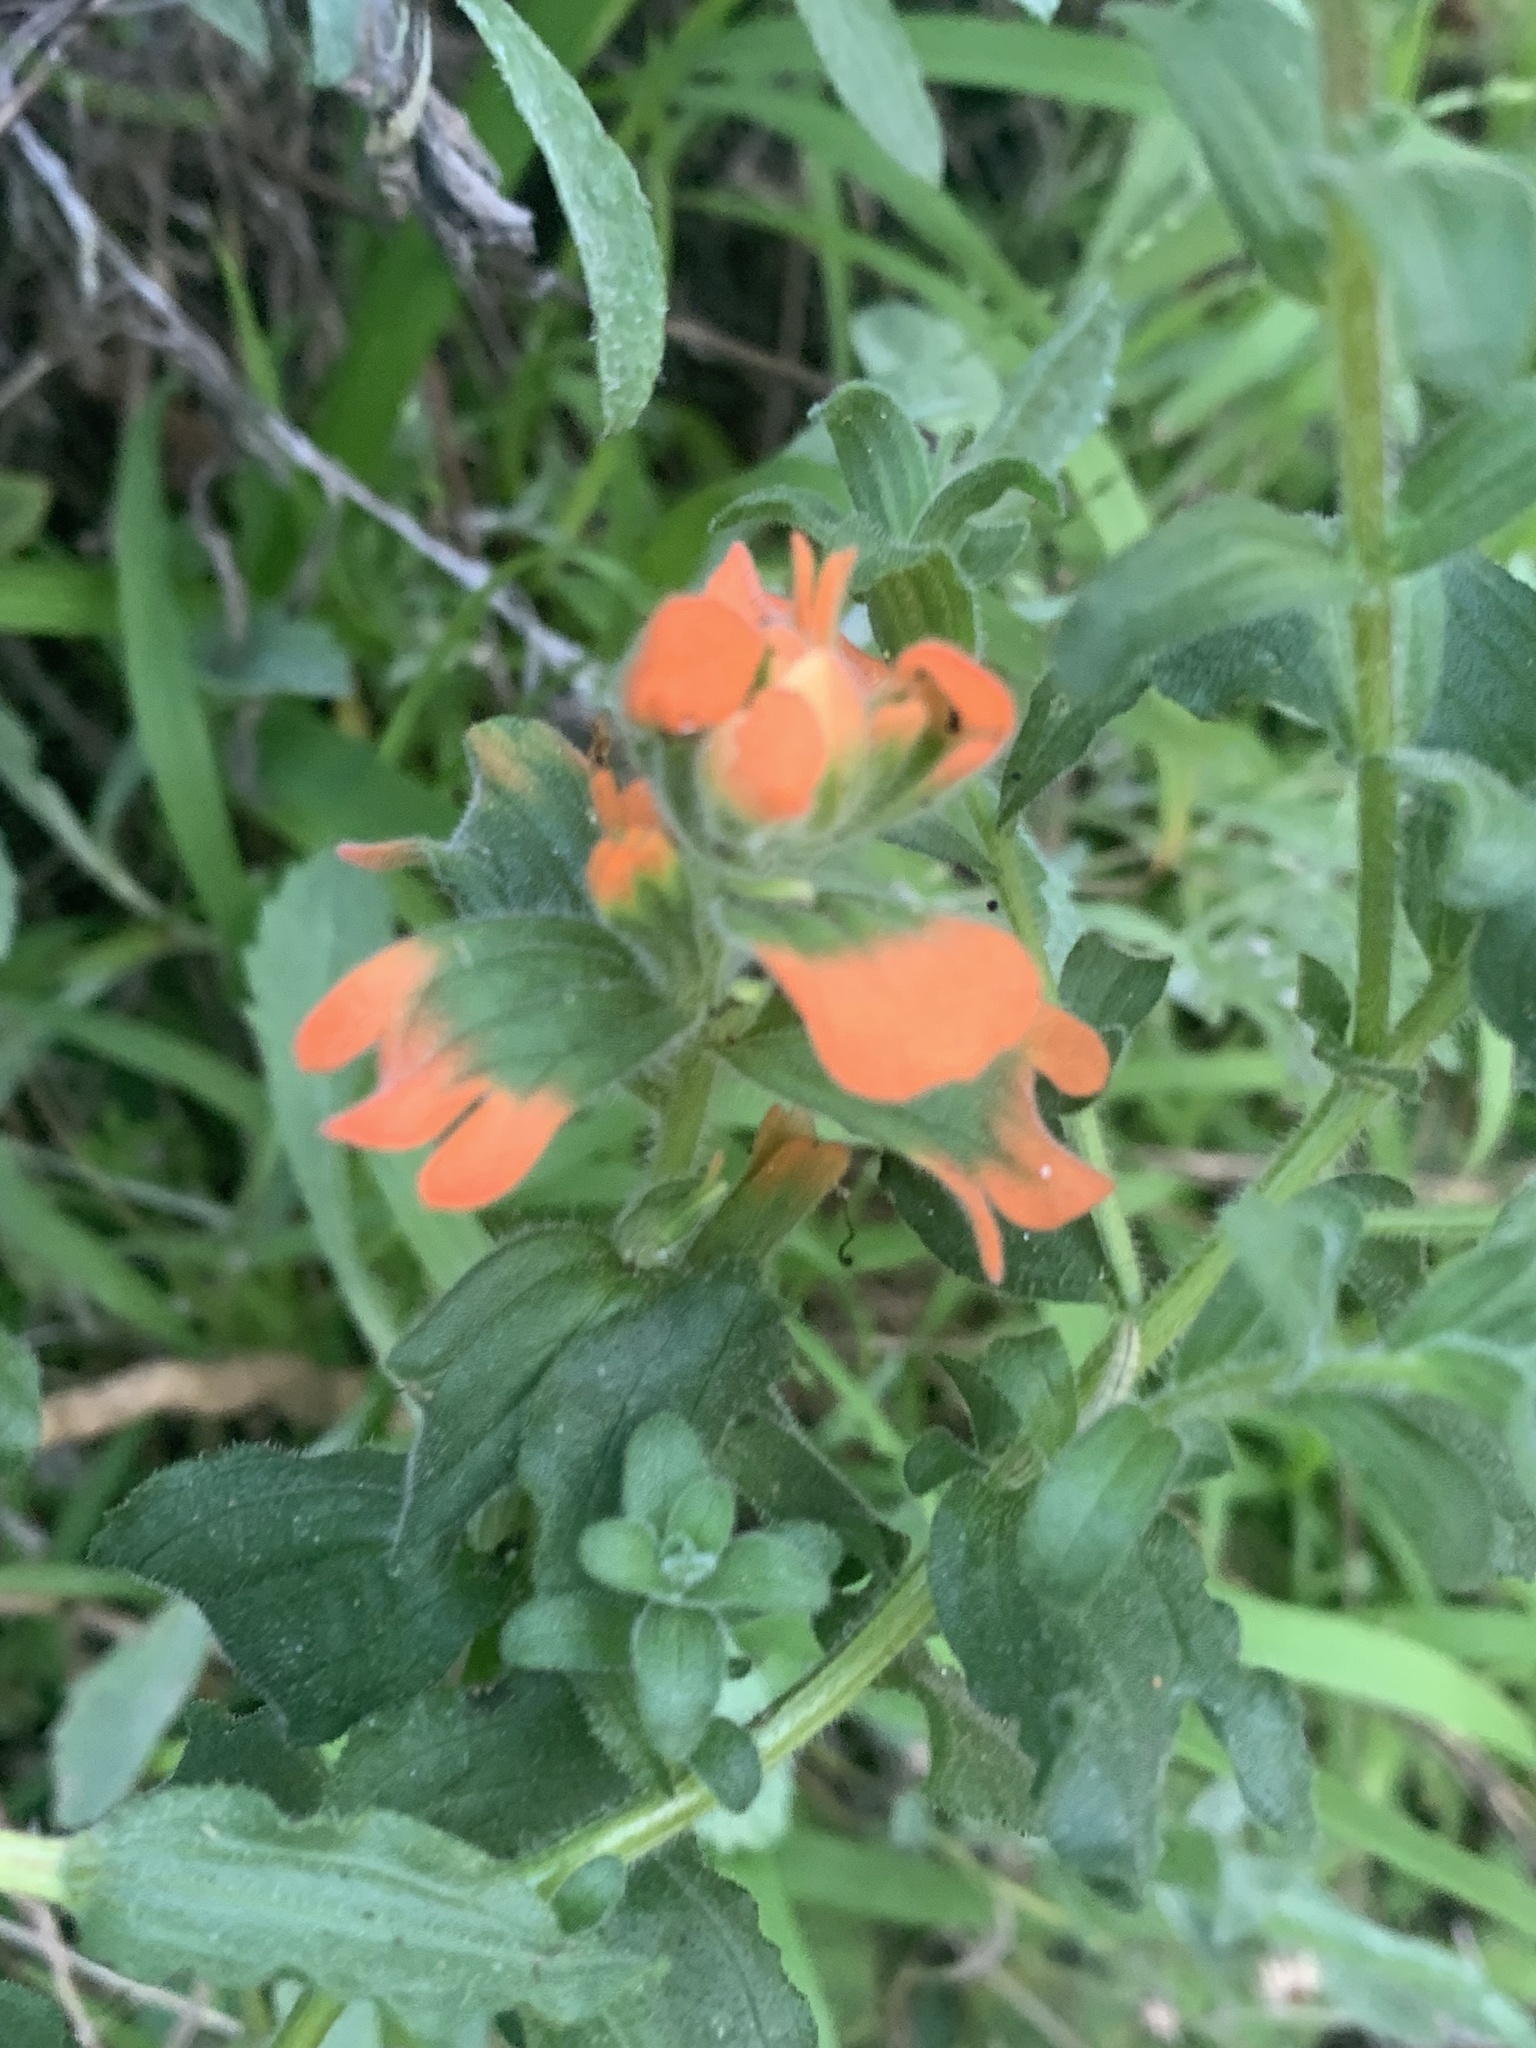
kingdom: Plantae
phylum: Tracheophyta
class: Magnoliopsida
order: Lamiales
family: Orobanchaceae
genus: Castilleja
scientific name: Castilleja latifolia
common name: Monterey indian paintbrush
